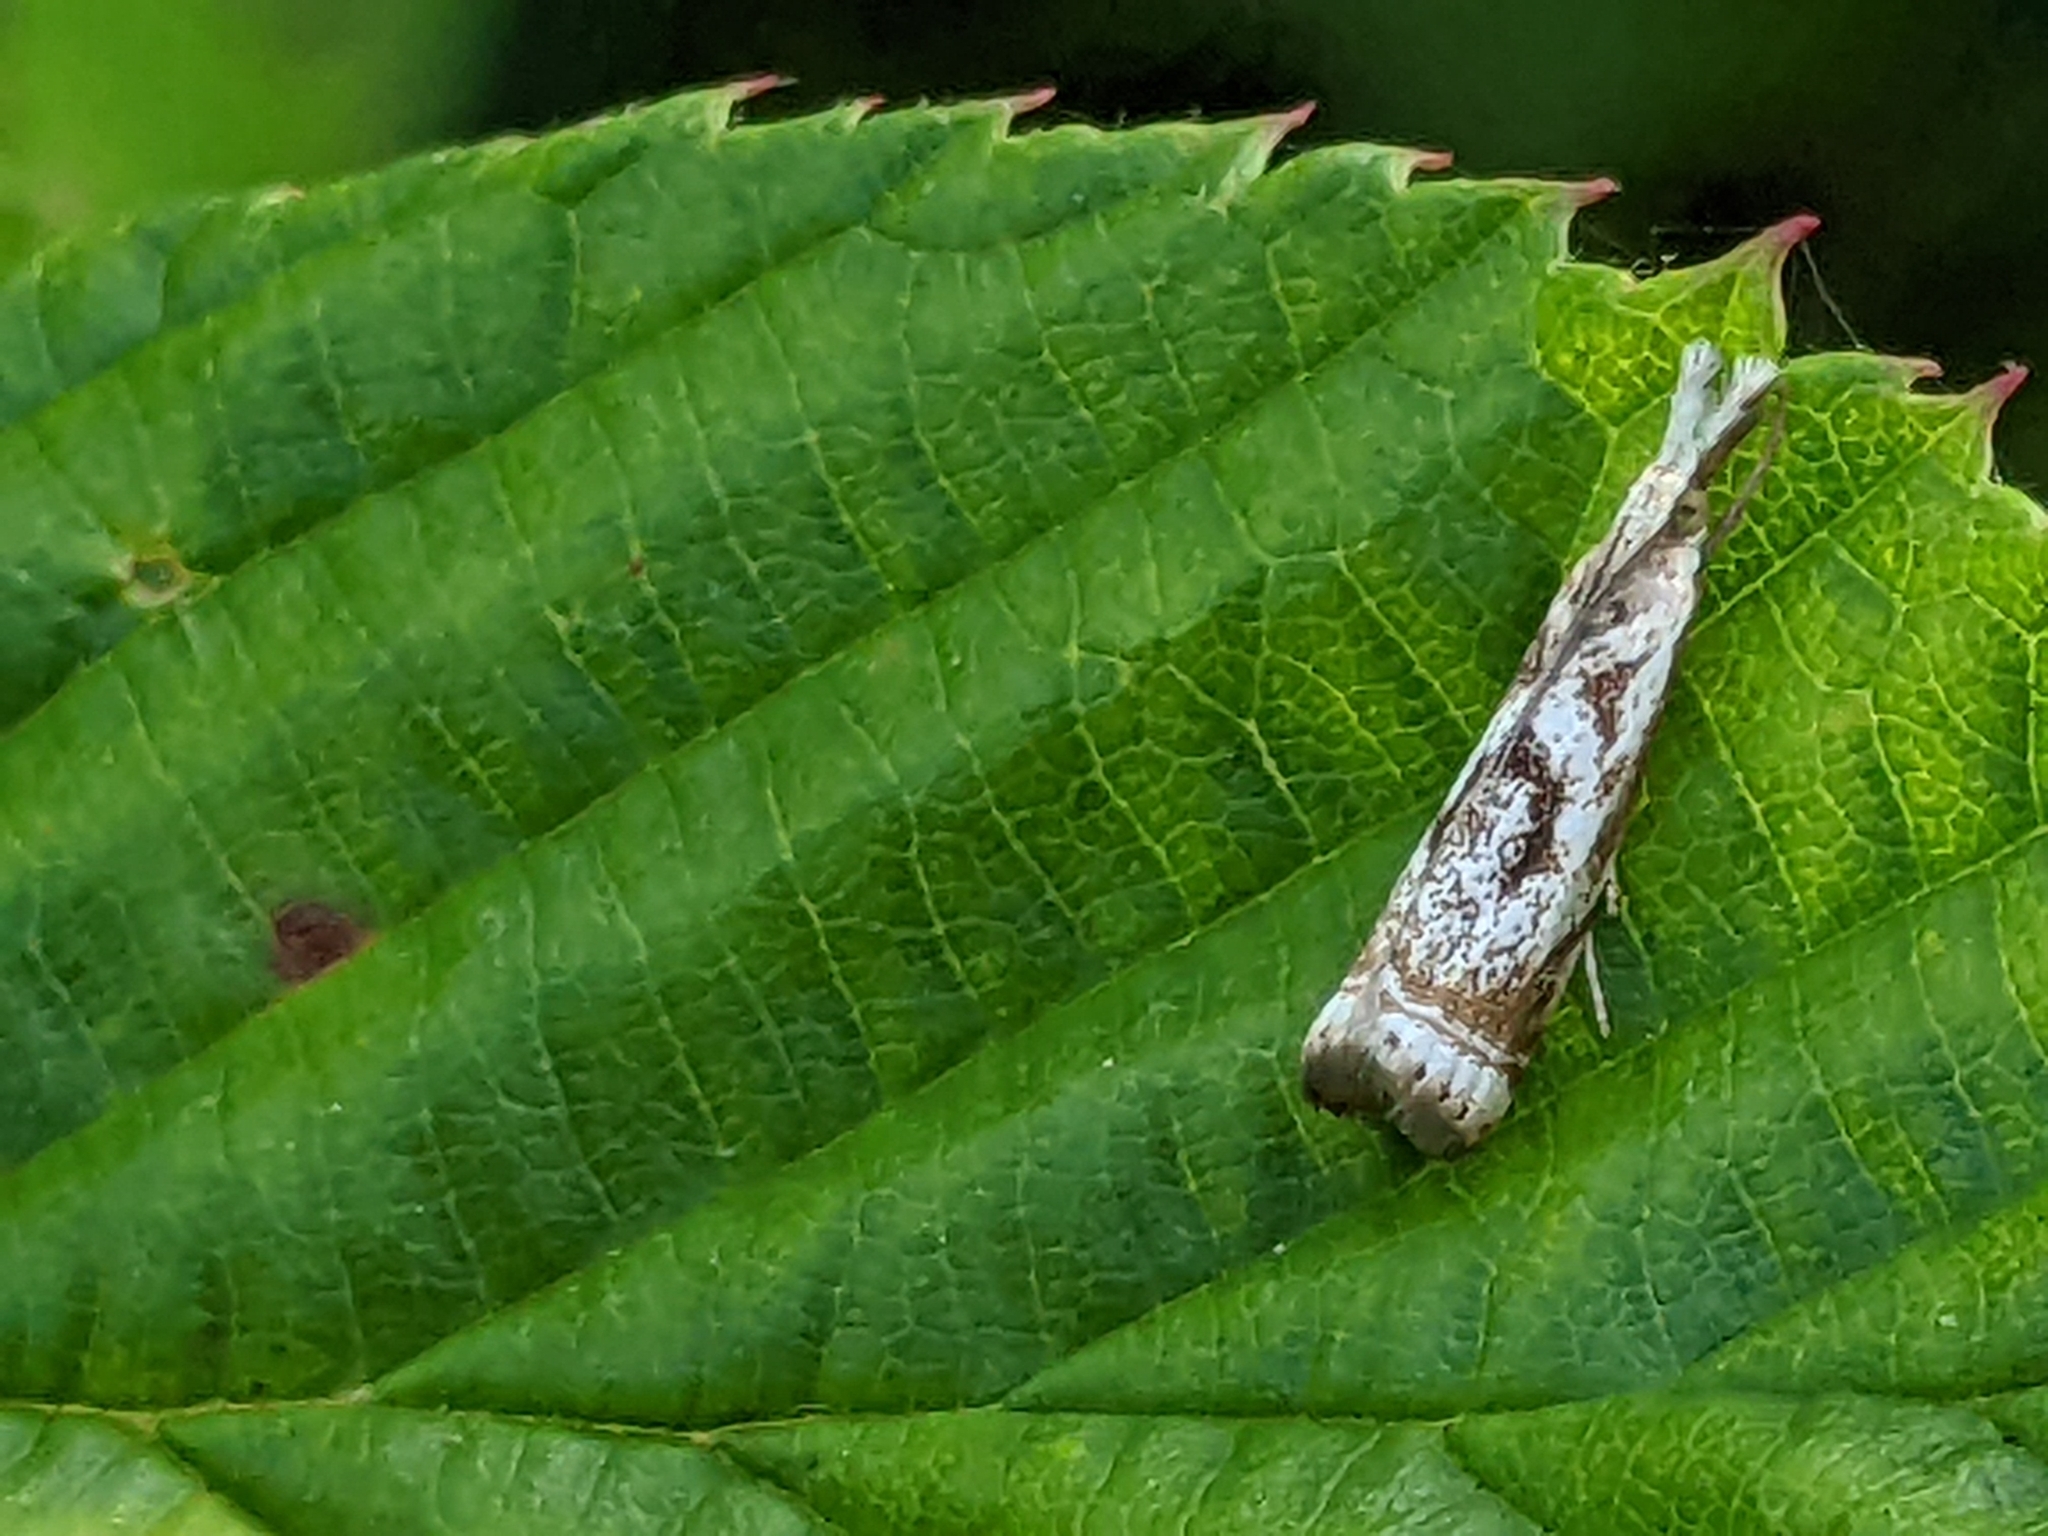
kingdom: Animalia
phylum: Arthropoda
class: Insecta
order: Lepidoptera
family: Crambidae
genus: Microcrambus
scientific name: Microcrambus elegans
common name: Elegant grass-veneer
